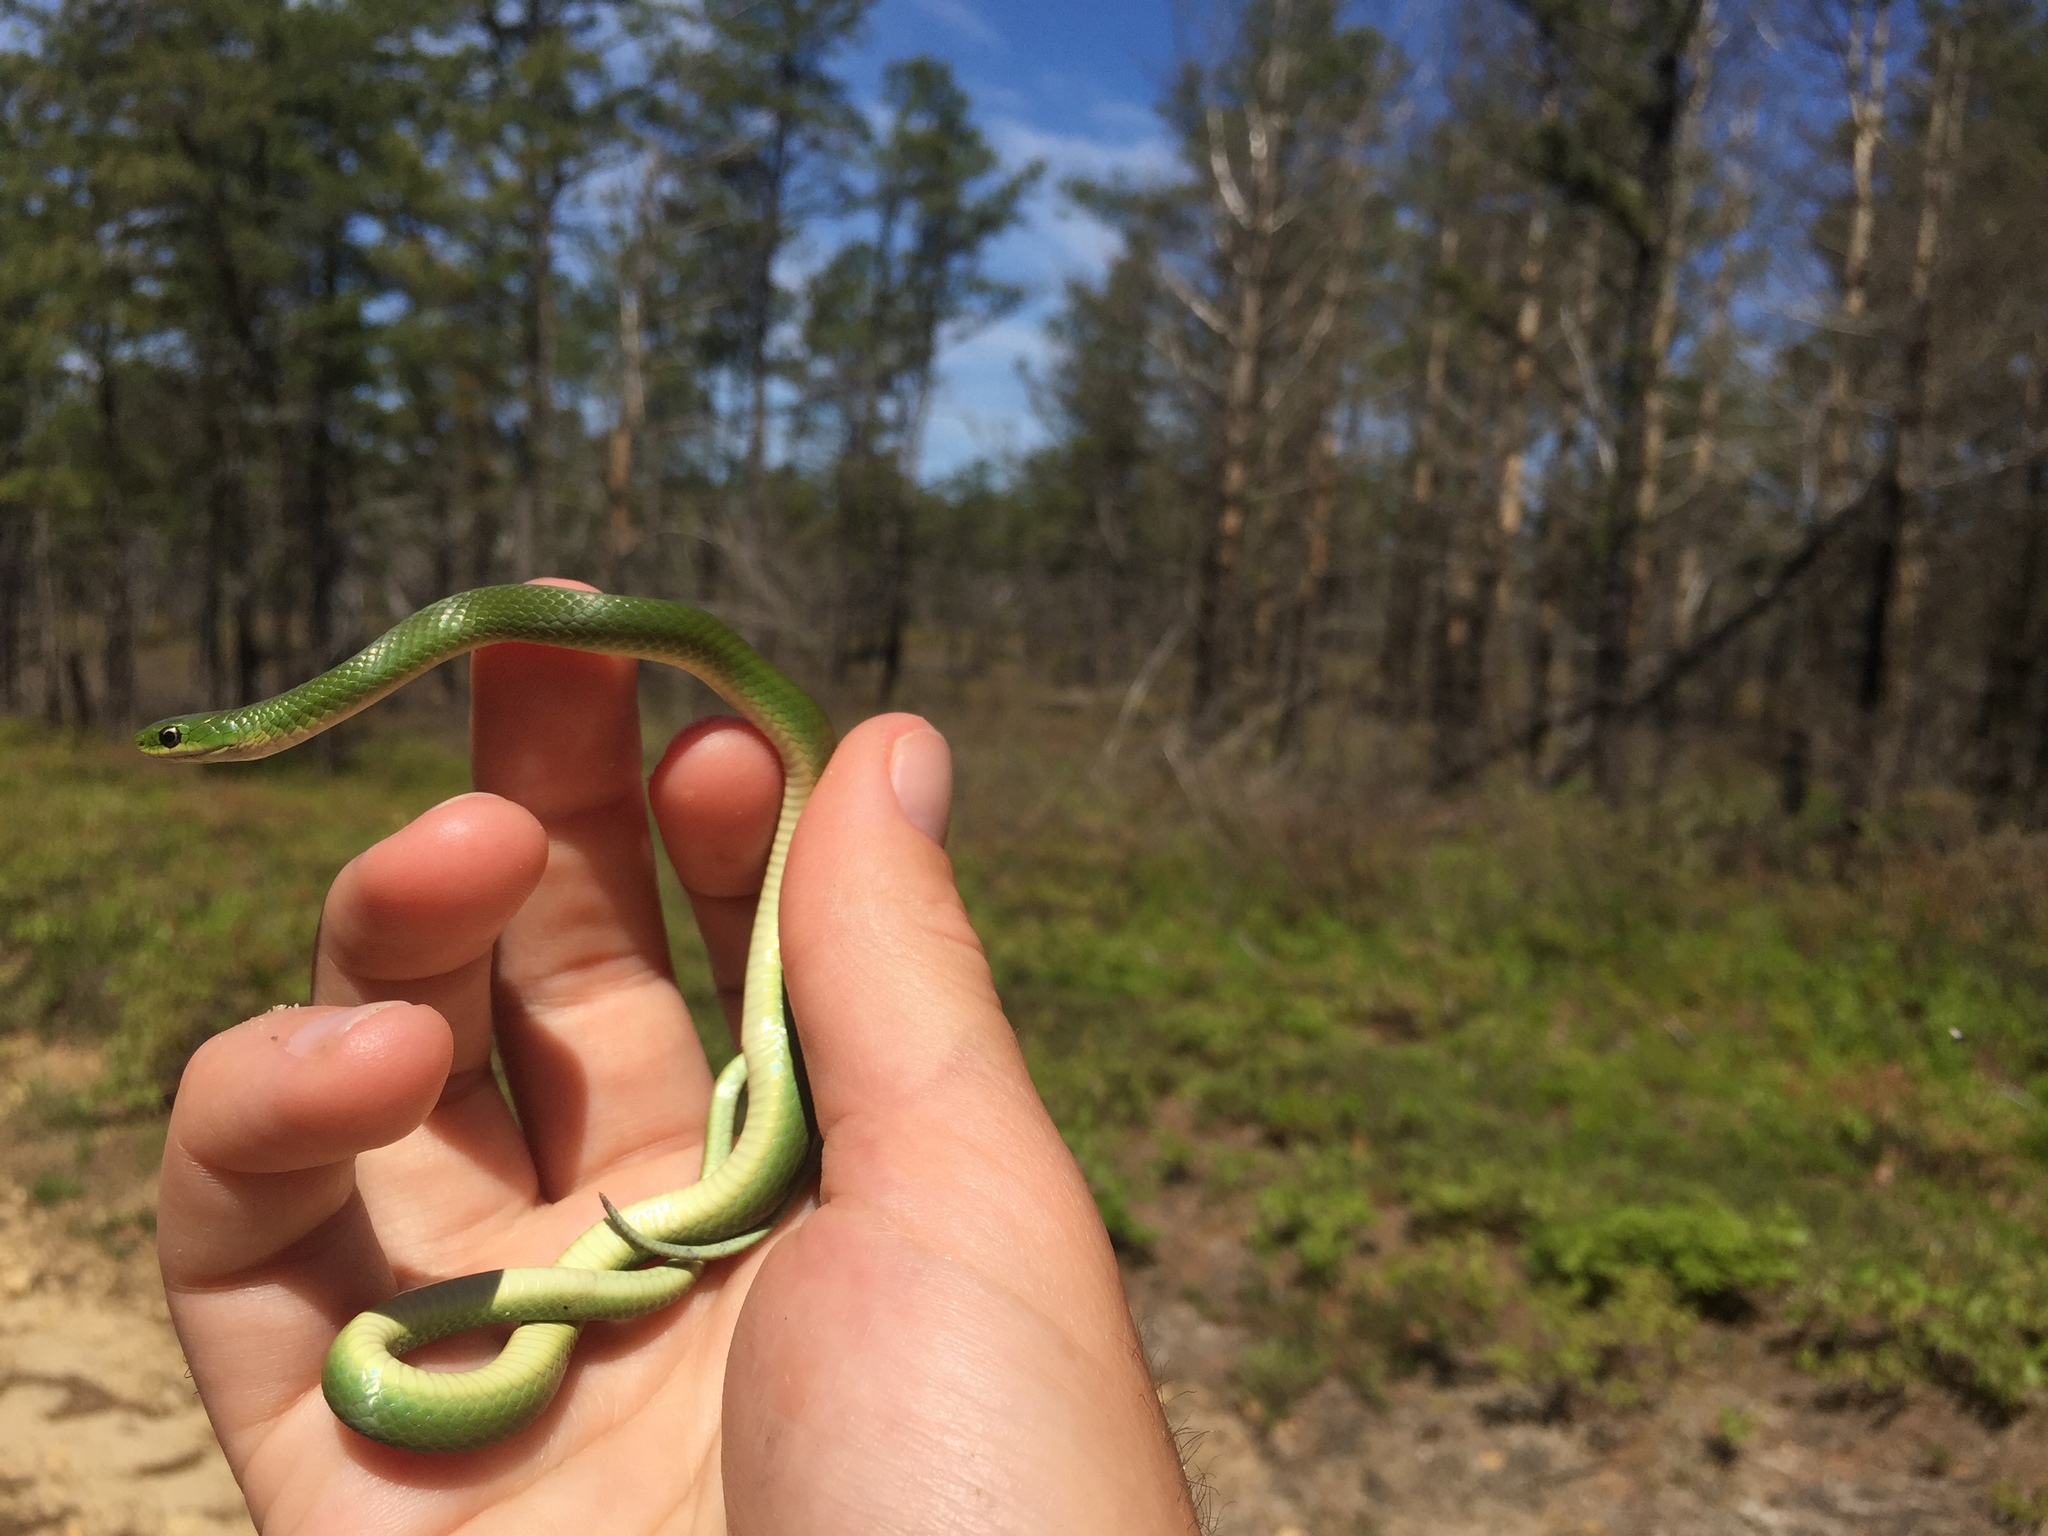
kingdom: Animalia
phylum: Chordata
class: Squamata
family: Colubridae
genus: Opheodrys
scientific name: Opheodrys vernalis
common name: Smooth green snake
